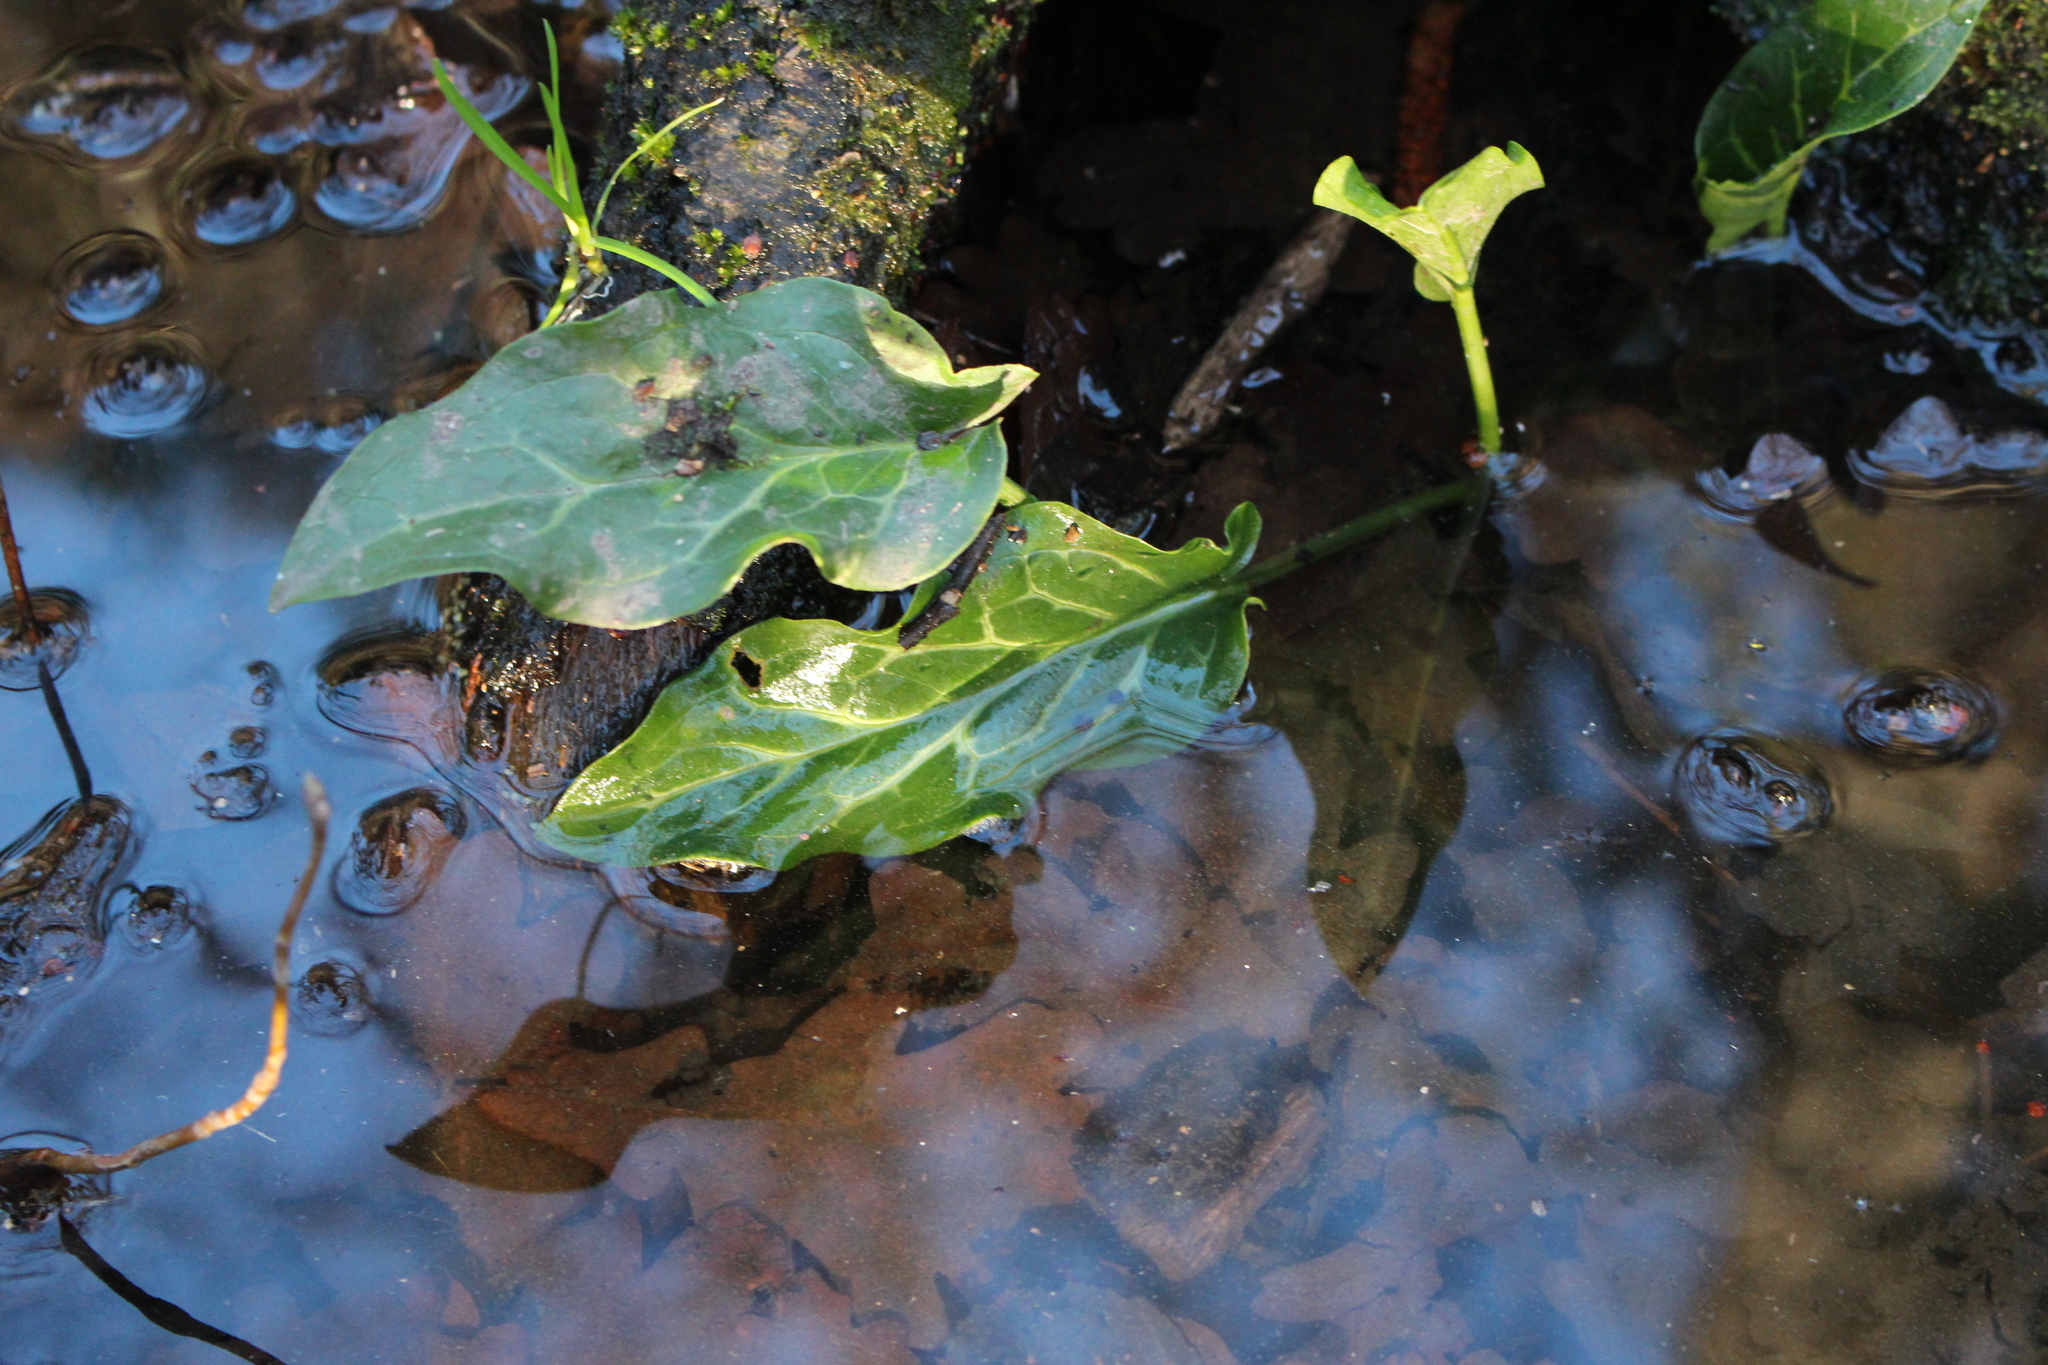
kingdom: Plantae
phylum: Tracheophyta
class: Liliopsida
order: Alismatales
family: Araceae
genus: Arum
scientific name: Arum italicum
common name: Italian lords-and-ladies
